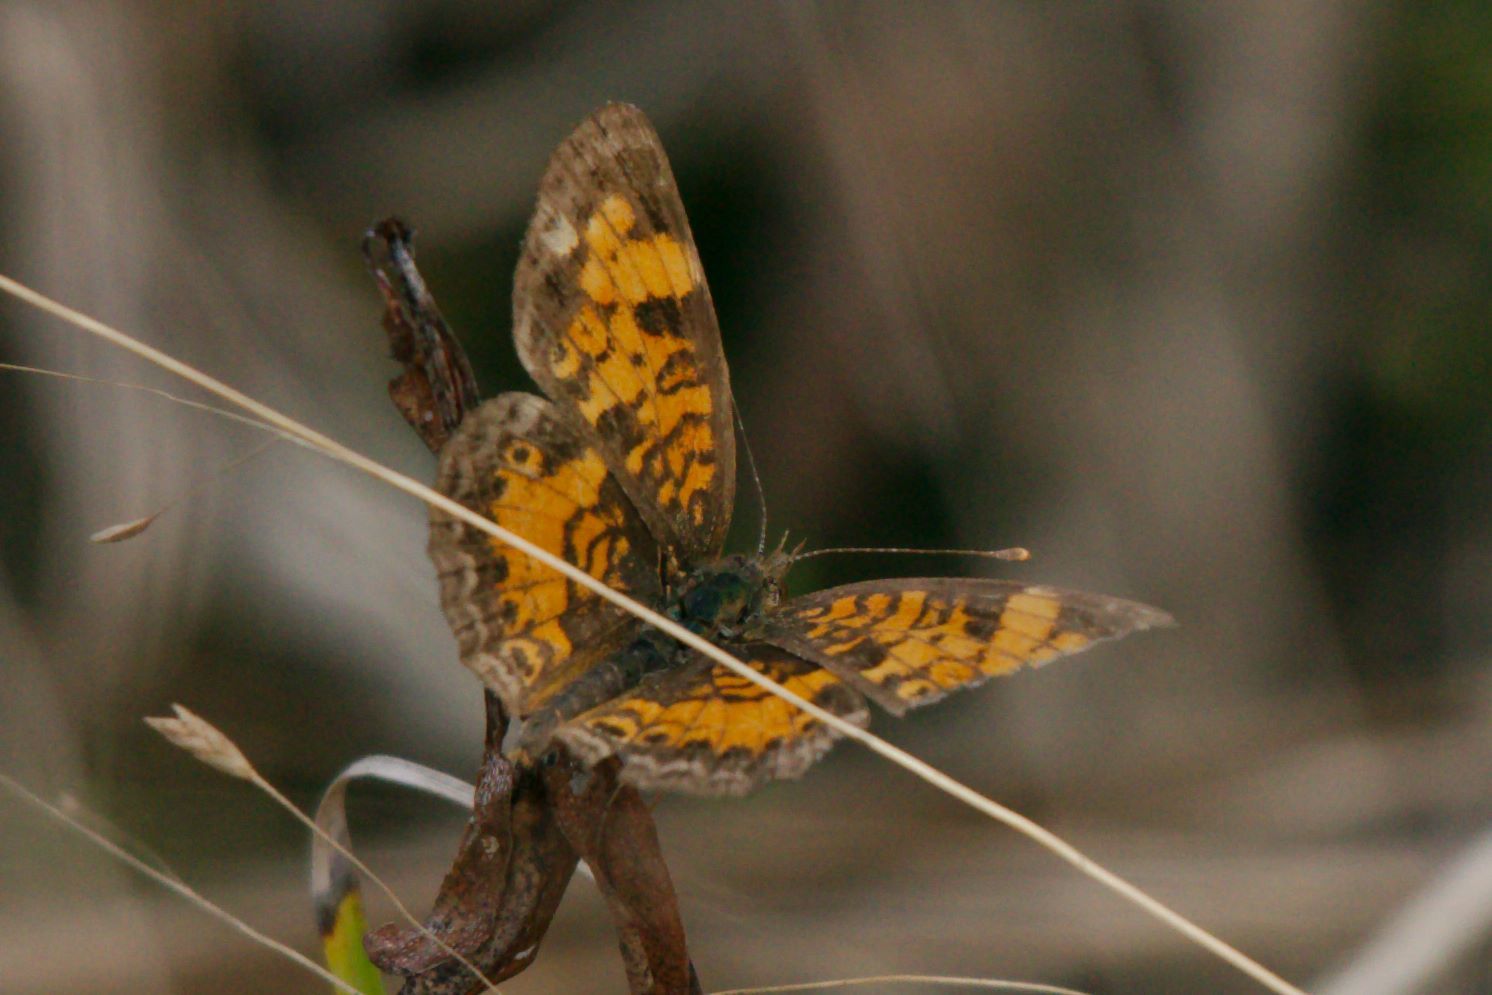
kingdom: Animalia
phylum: Arthropoda
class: Insecta
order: Lepidoptera
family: Nymphalidae
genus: Phyciodes
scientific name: Phyciodes tharos
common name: Pearl crescent
